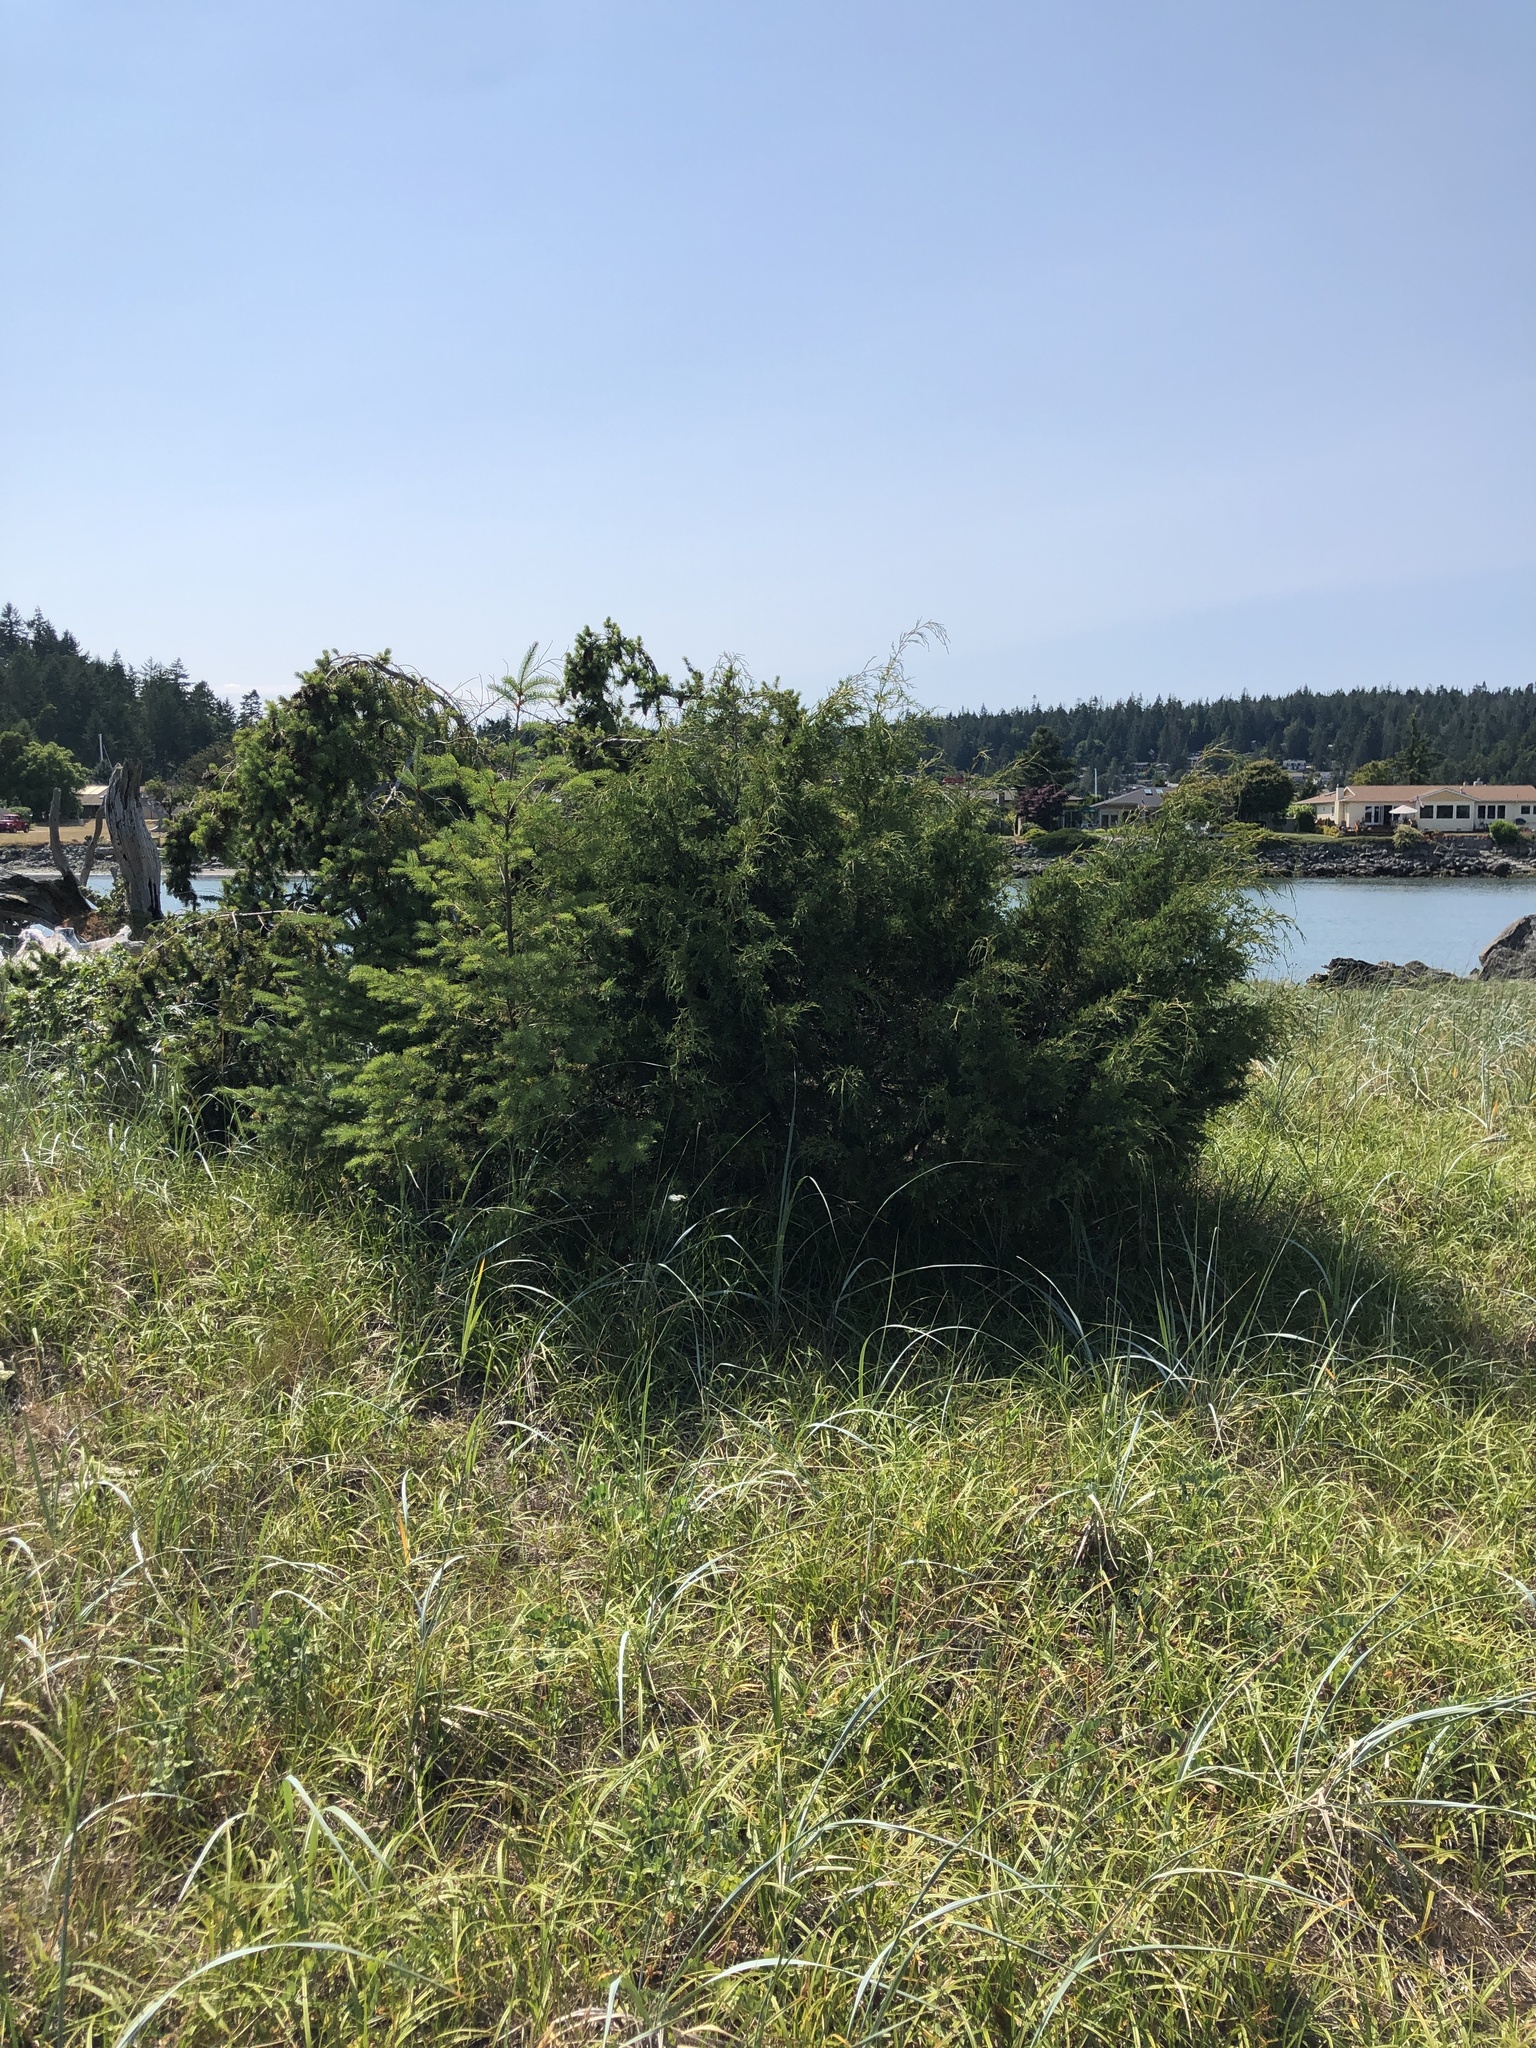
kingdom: Plantae
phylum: Tracheophyta
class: Pinopsida
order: Pinales
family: Cupressaceae
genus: Juniperus
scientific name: Juniperus scopulorum
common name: Rocky mountain juniper
